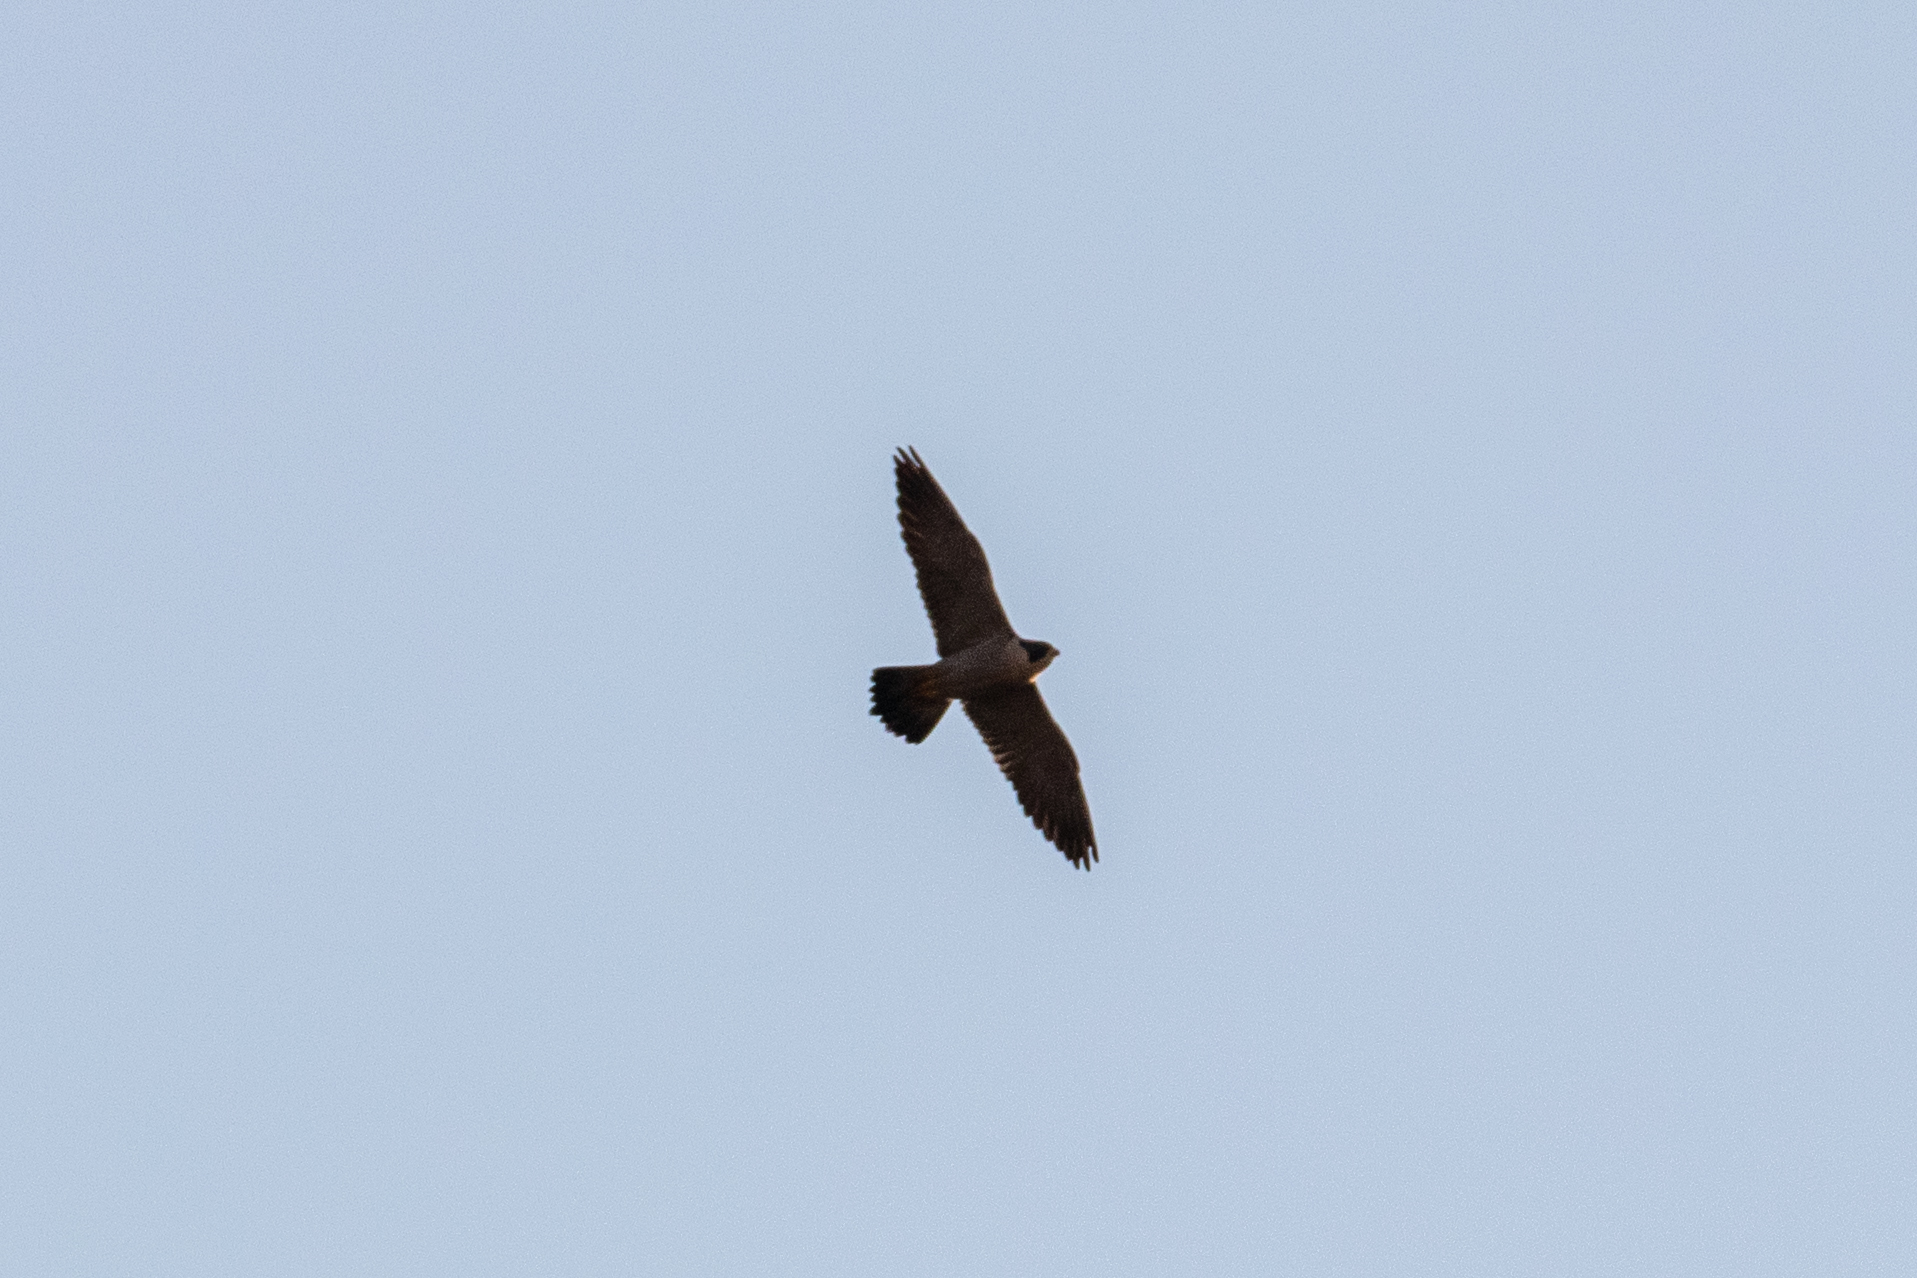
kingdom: Animalia
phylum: Chordata
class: Aves
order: Falconiformes
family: Falconidae
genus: Falco
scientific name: Falco peregrinus
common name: Peregrine falcon
